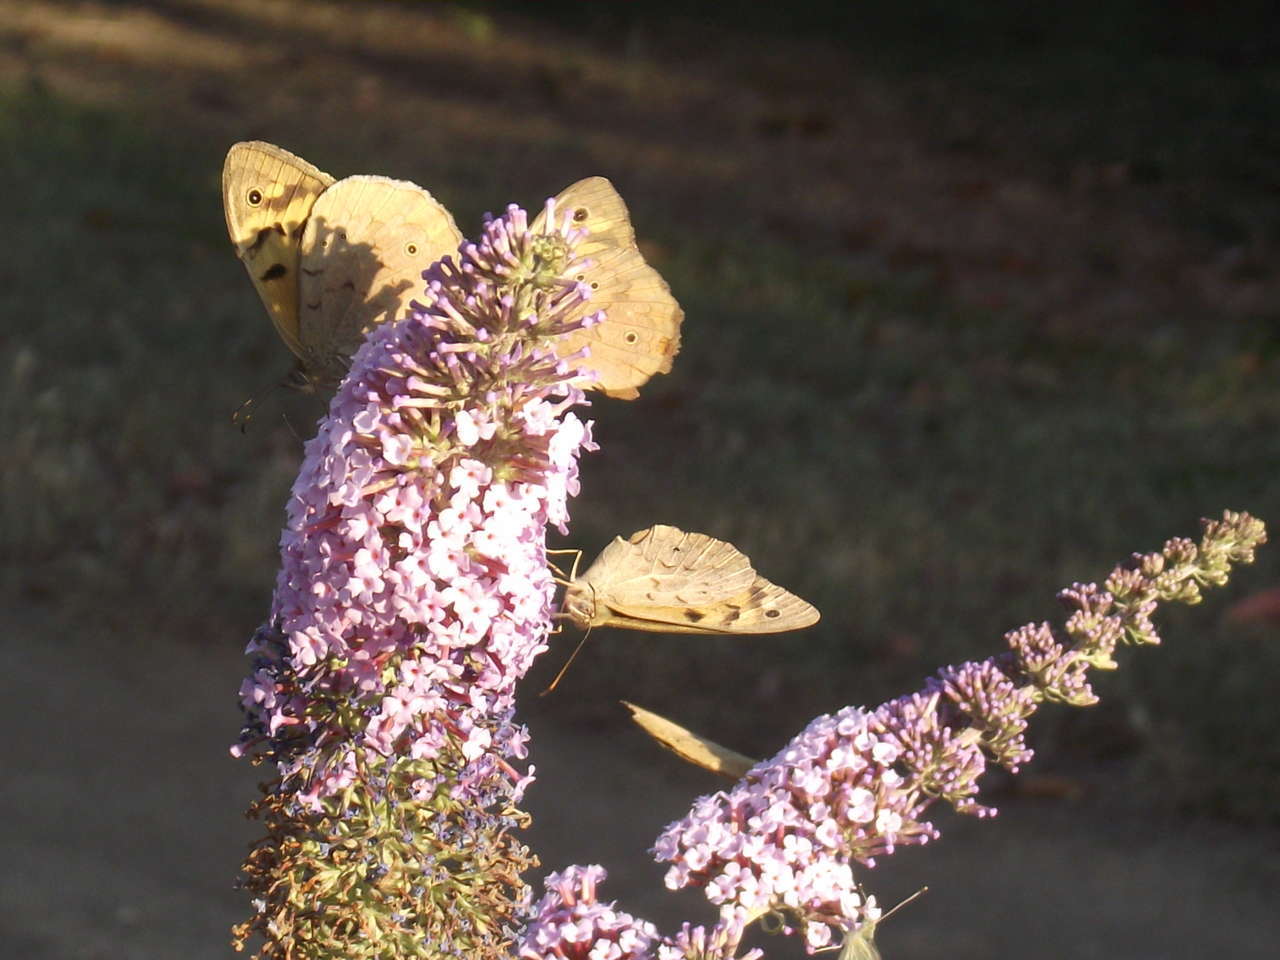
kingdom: Animalia
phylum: Arthropoda
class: Insecta
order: Lepidoptera
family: Nymphalidae
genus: Heteronympha
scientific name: Heteronympha merope
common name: Common brown
